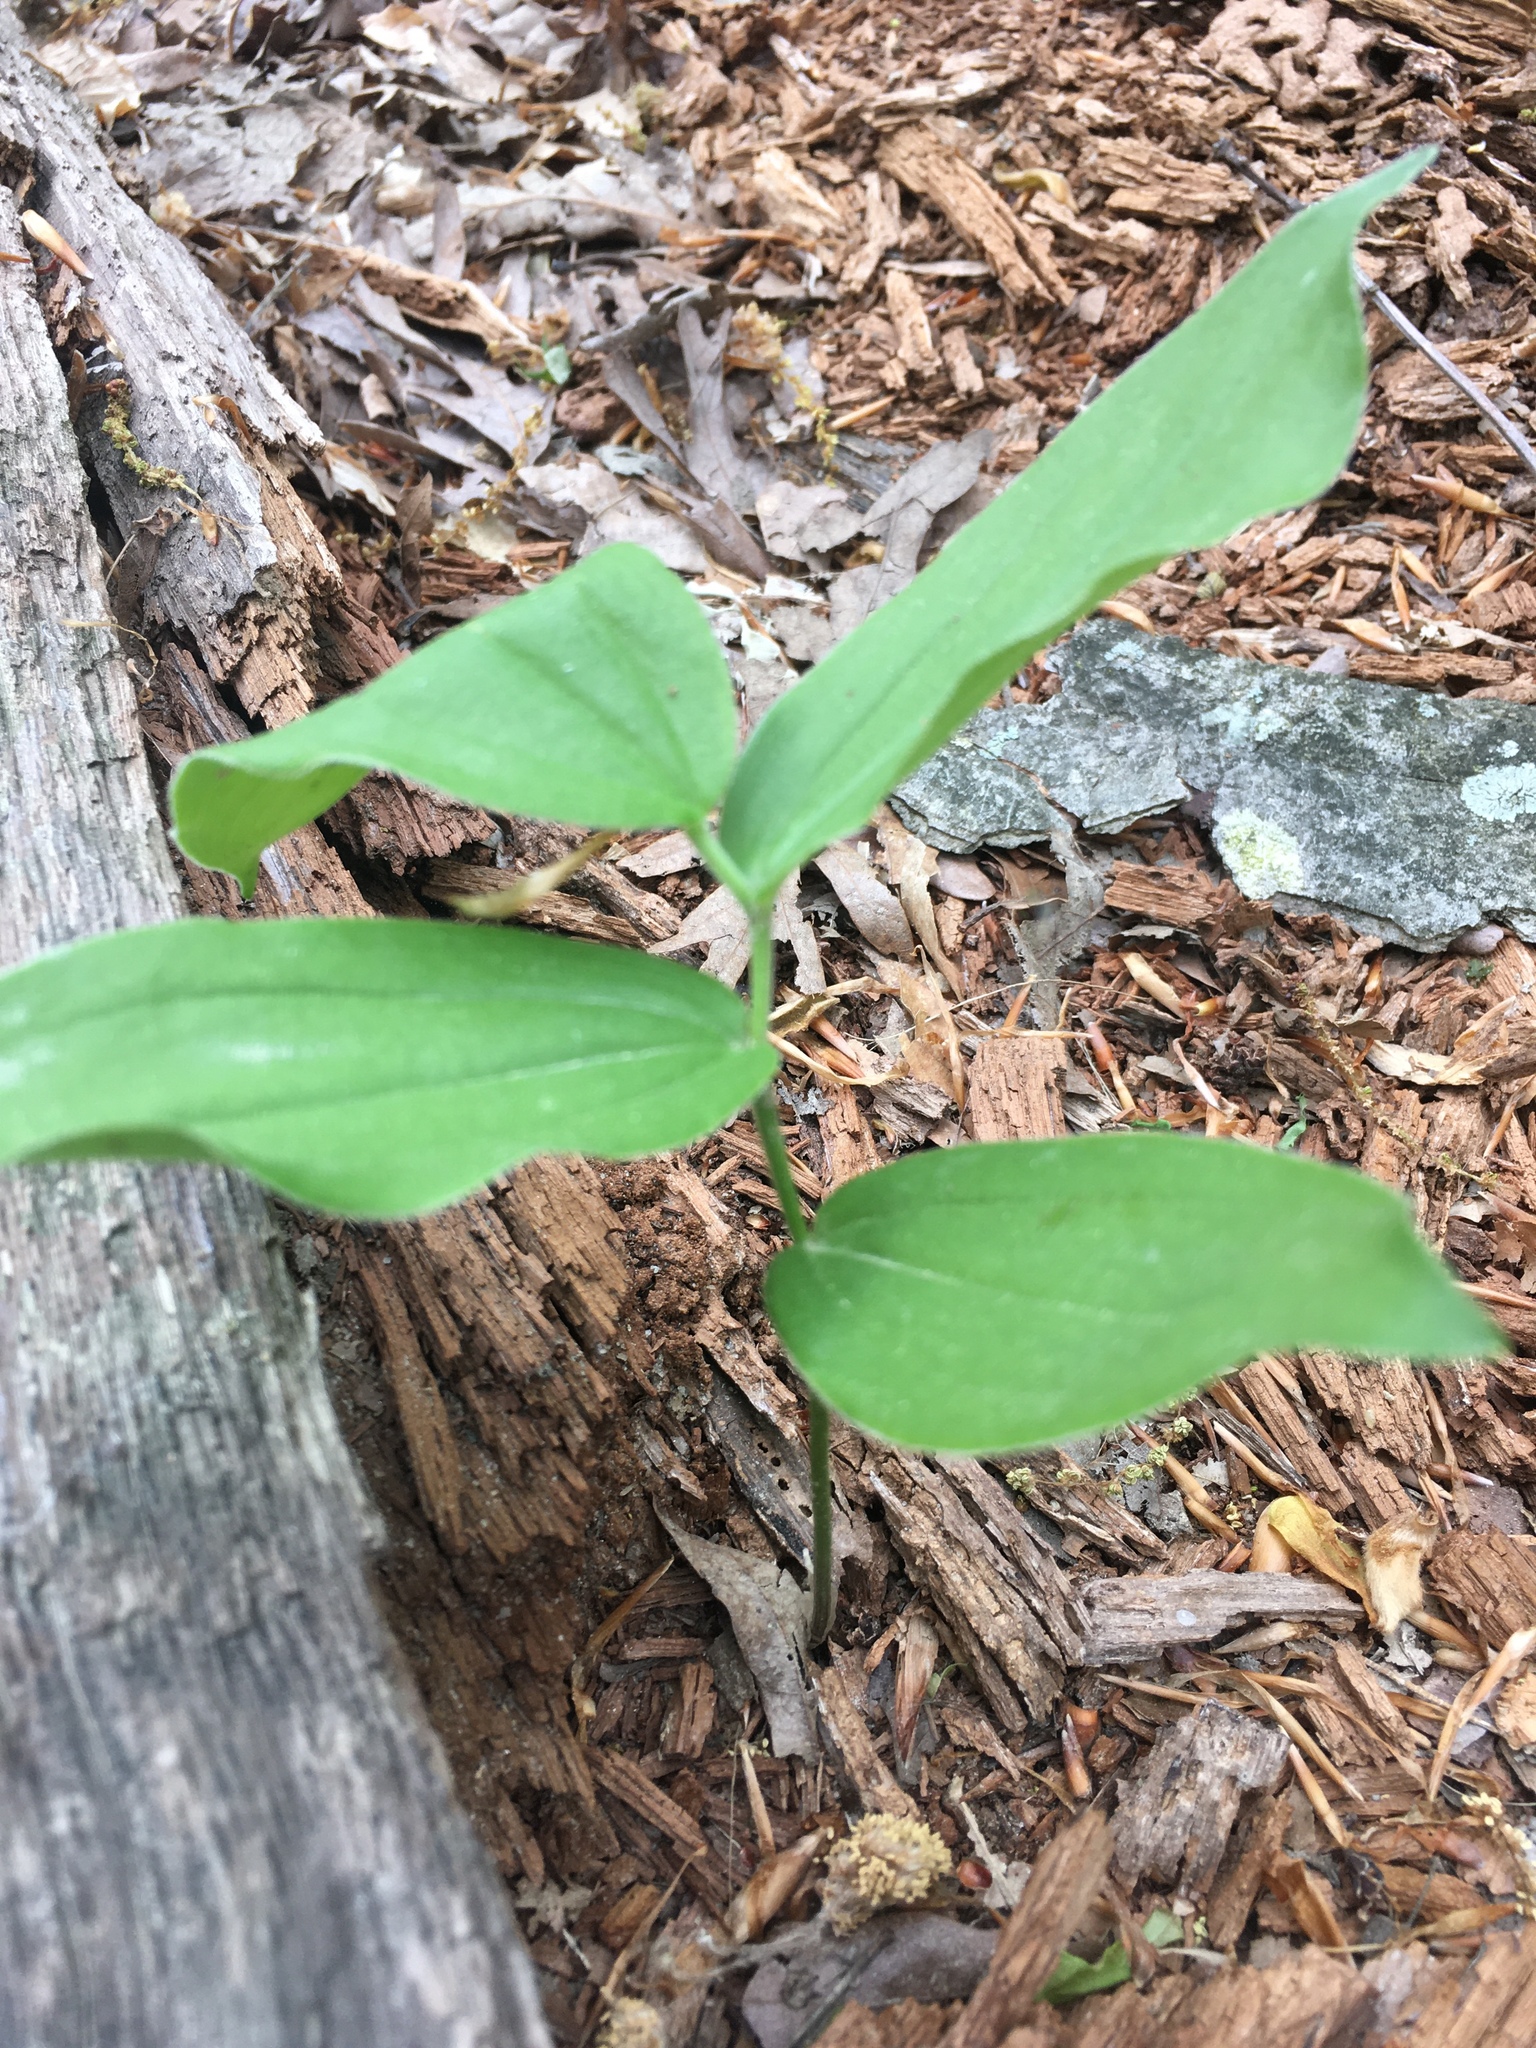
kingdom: Plantae
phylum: Tracheophyta
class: Liliopsida
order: Asparagales
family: Asparagaceae
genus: Maianthemum
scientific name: Maianthemum racemosum
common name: False spikenard
